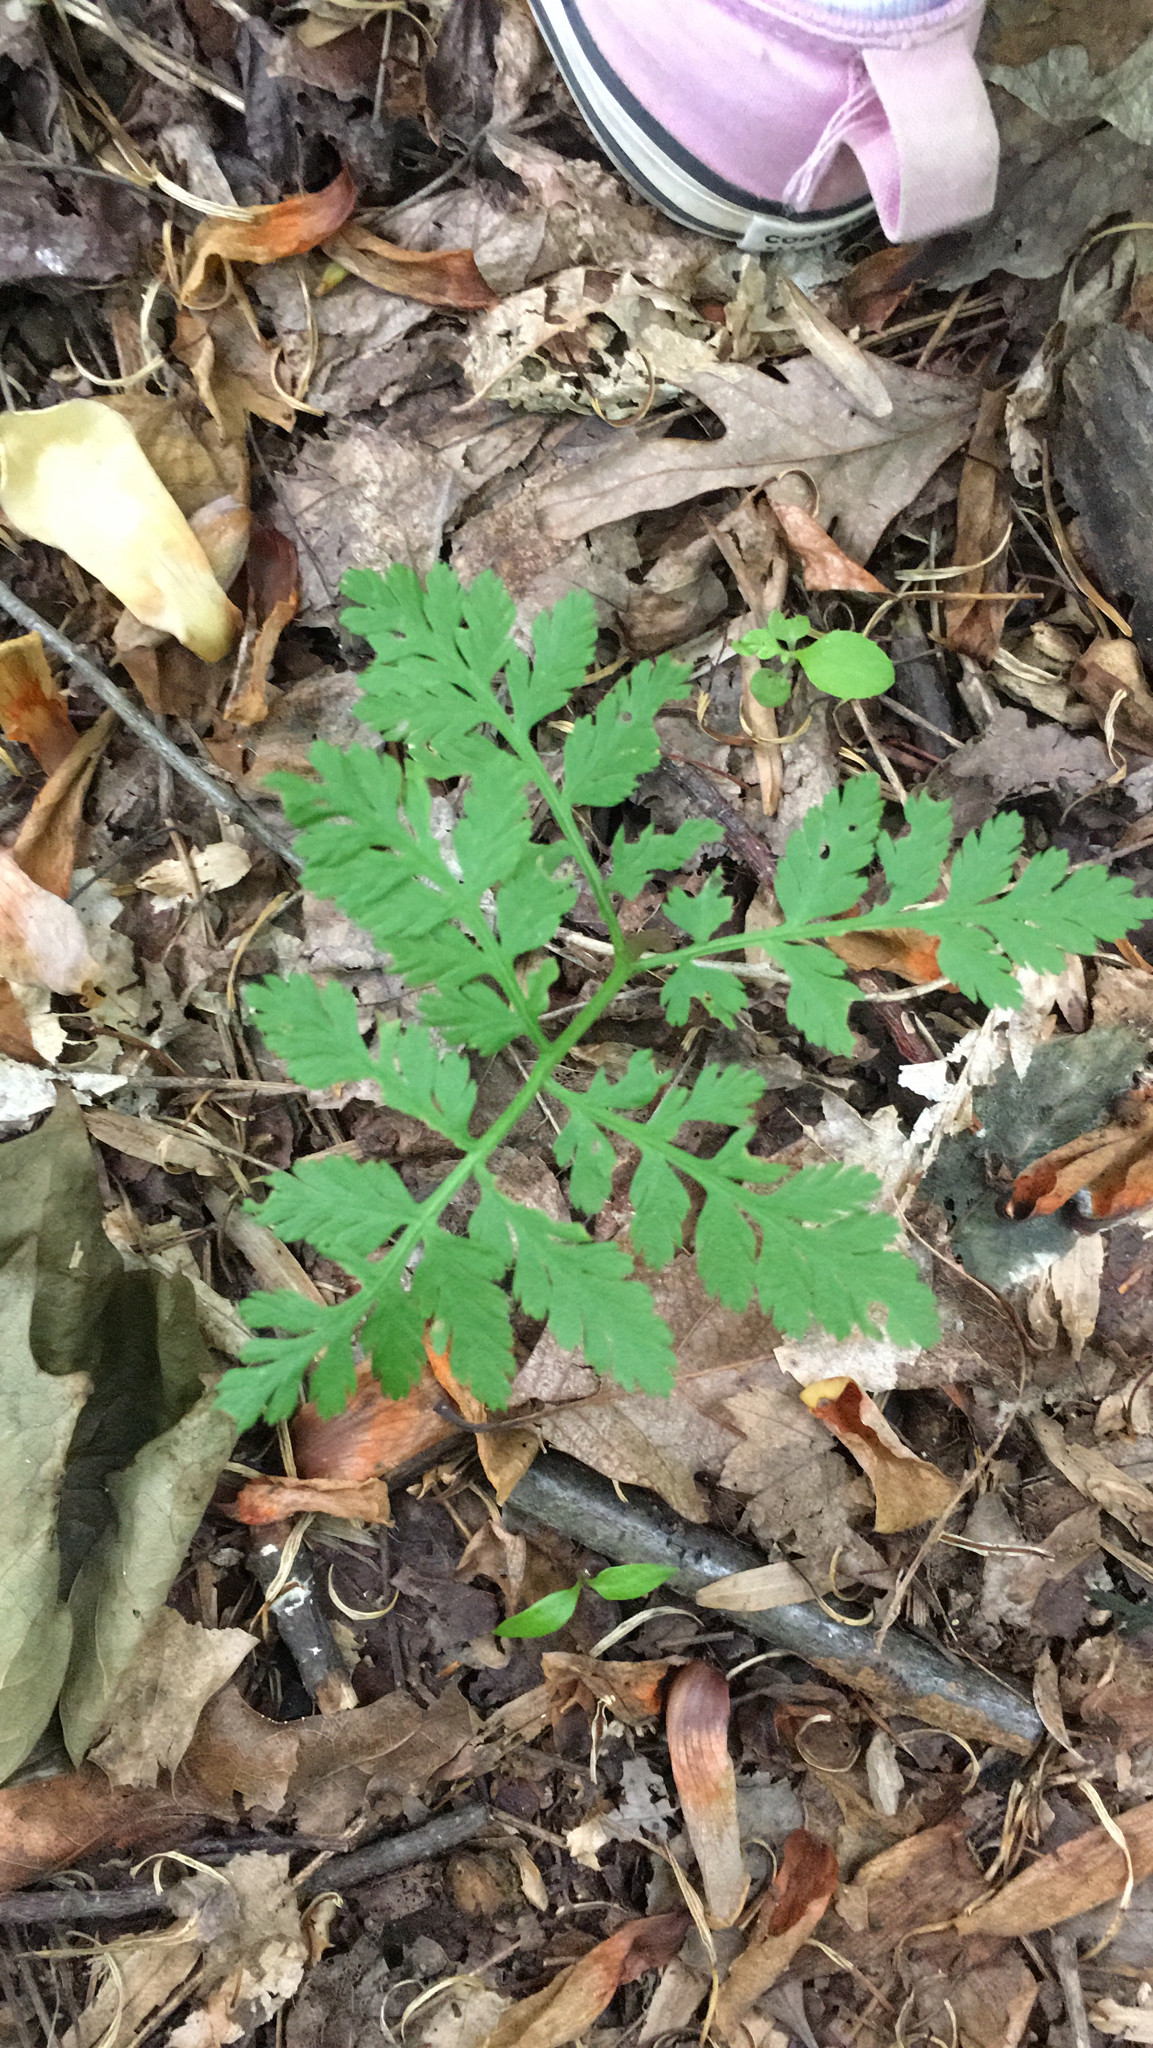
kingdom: Plantae
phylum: Tracheophyta
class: Polypodiopsida
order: Ophioglossales
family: Ophioglossaceae
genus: Botrypus
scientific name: Botrypus virginianus
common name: Common grapefern
